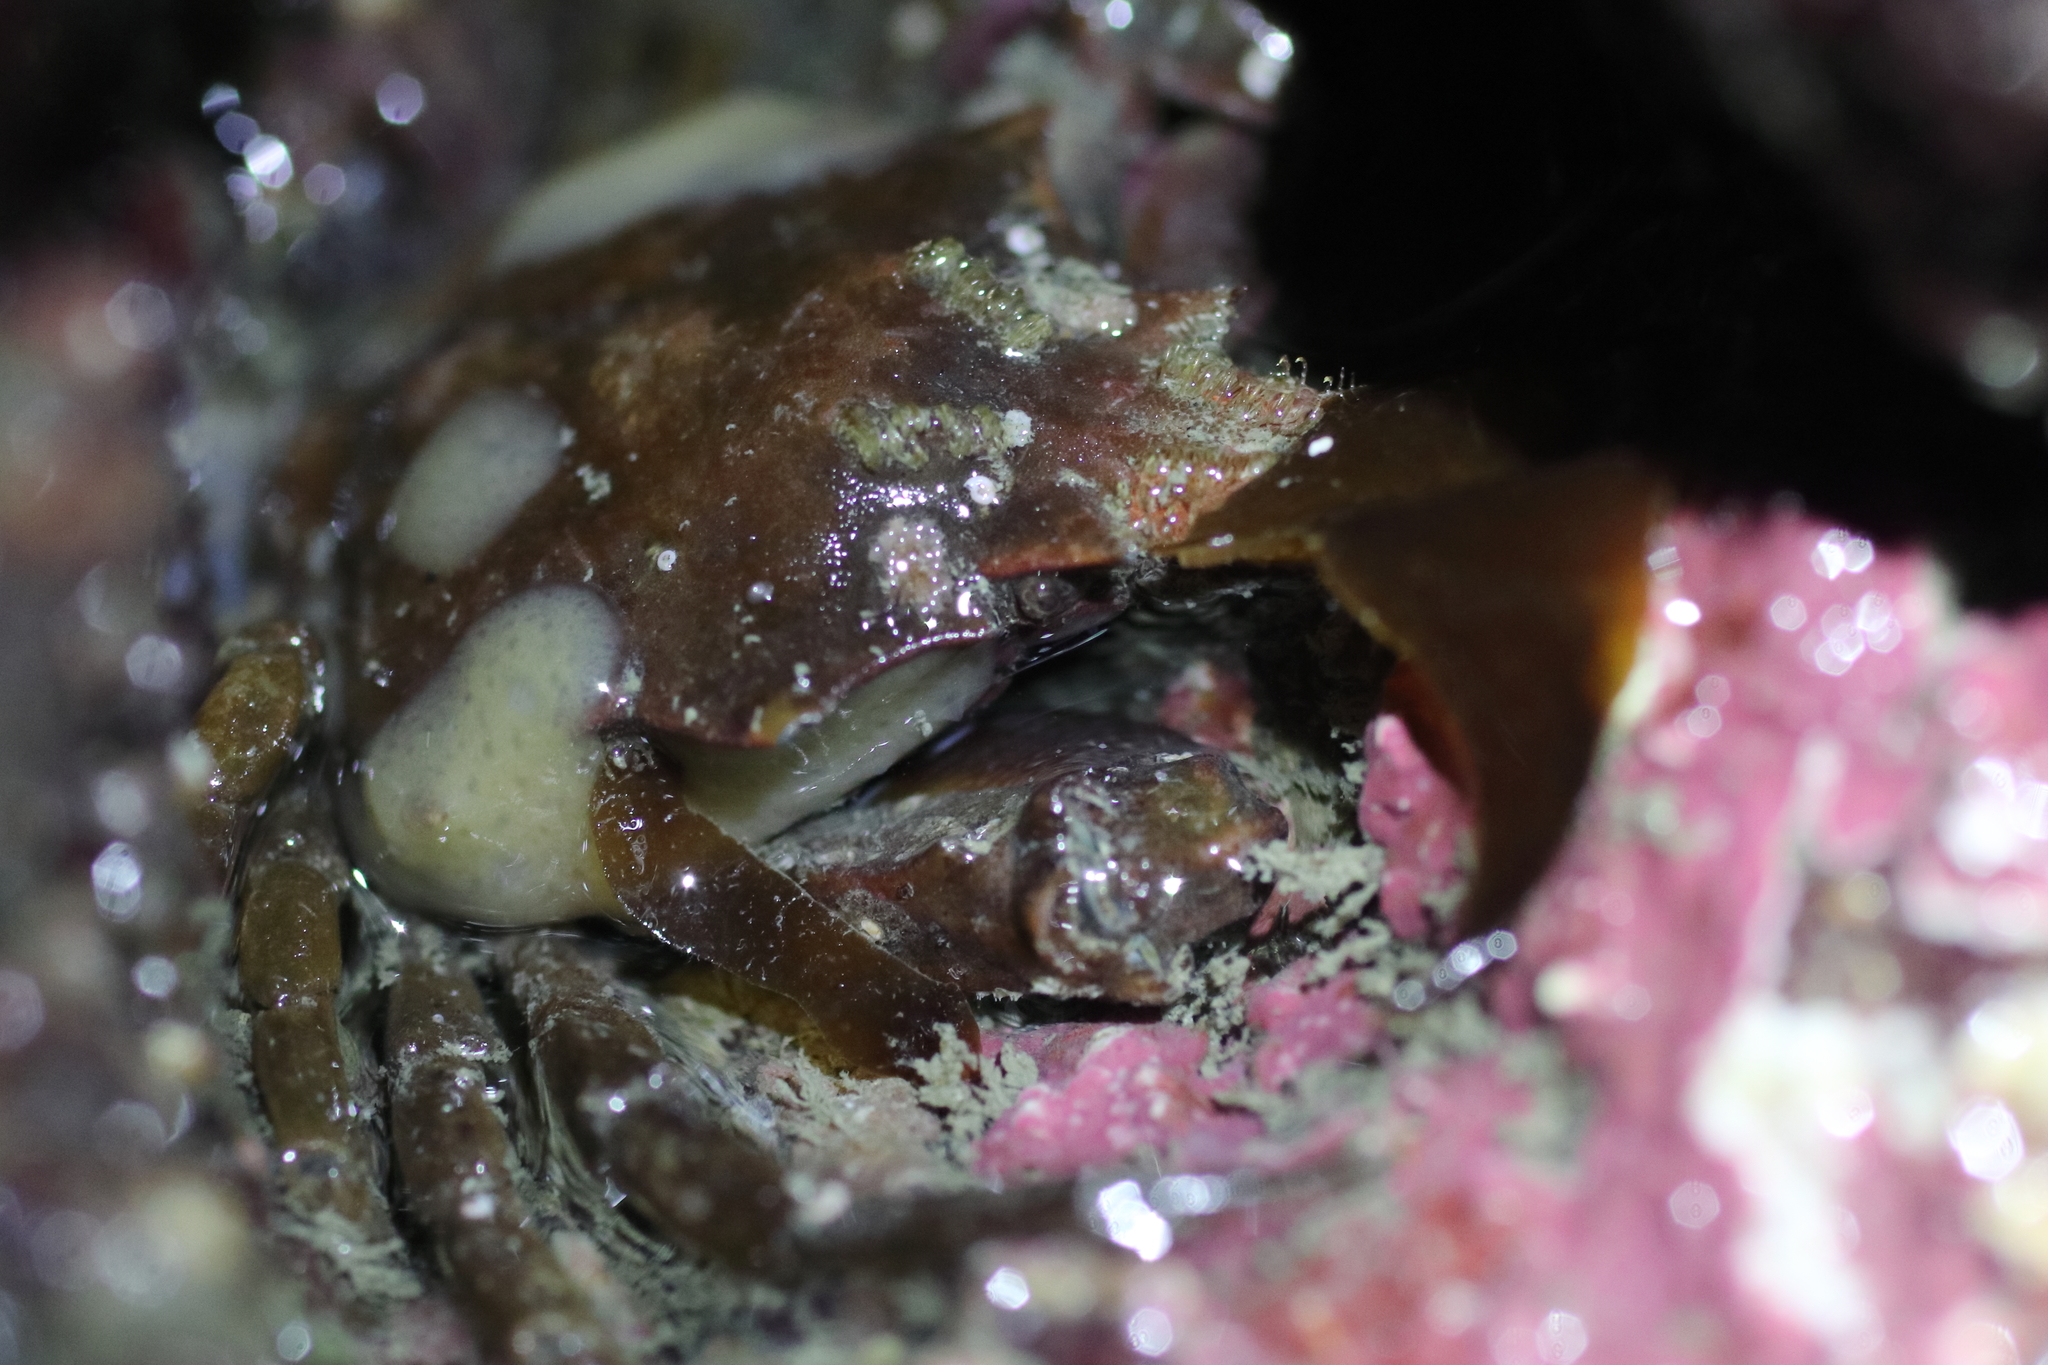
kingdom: Animalia
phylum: Arthropoda
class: Malacostraca
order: Decapoda
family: Epialtidae
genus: Pugettia
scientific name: Pugettia gracilis
